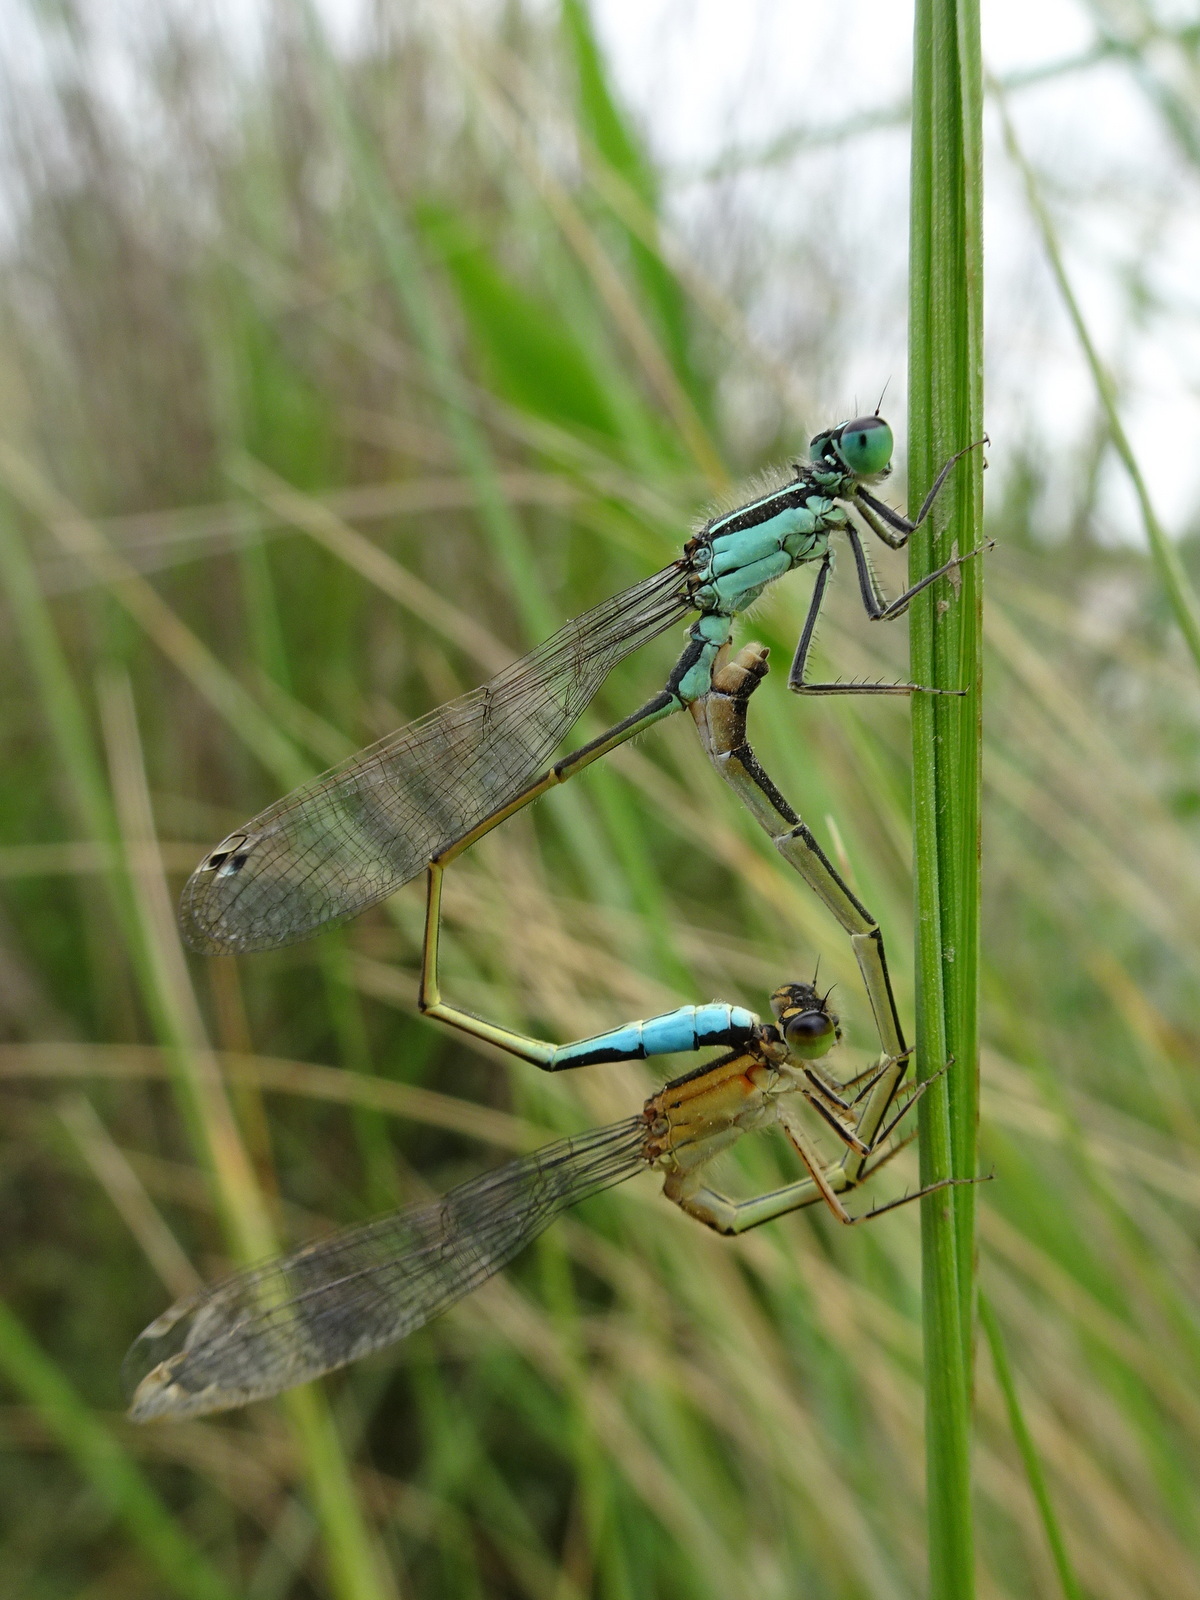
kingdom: Animalia
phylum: Arthropoda
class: Insecta
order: Odonata
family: Coenagrionidae
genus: Ischnura
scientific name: Ischnura elegans
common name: Blue-tailed damselfly
